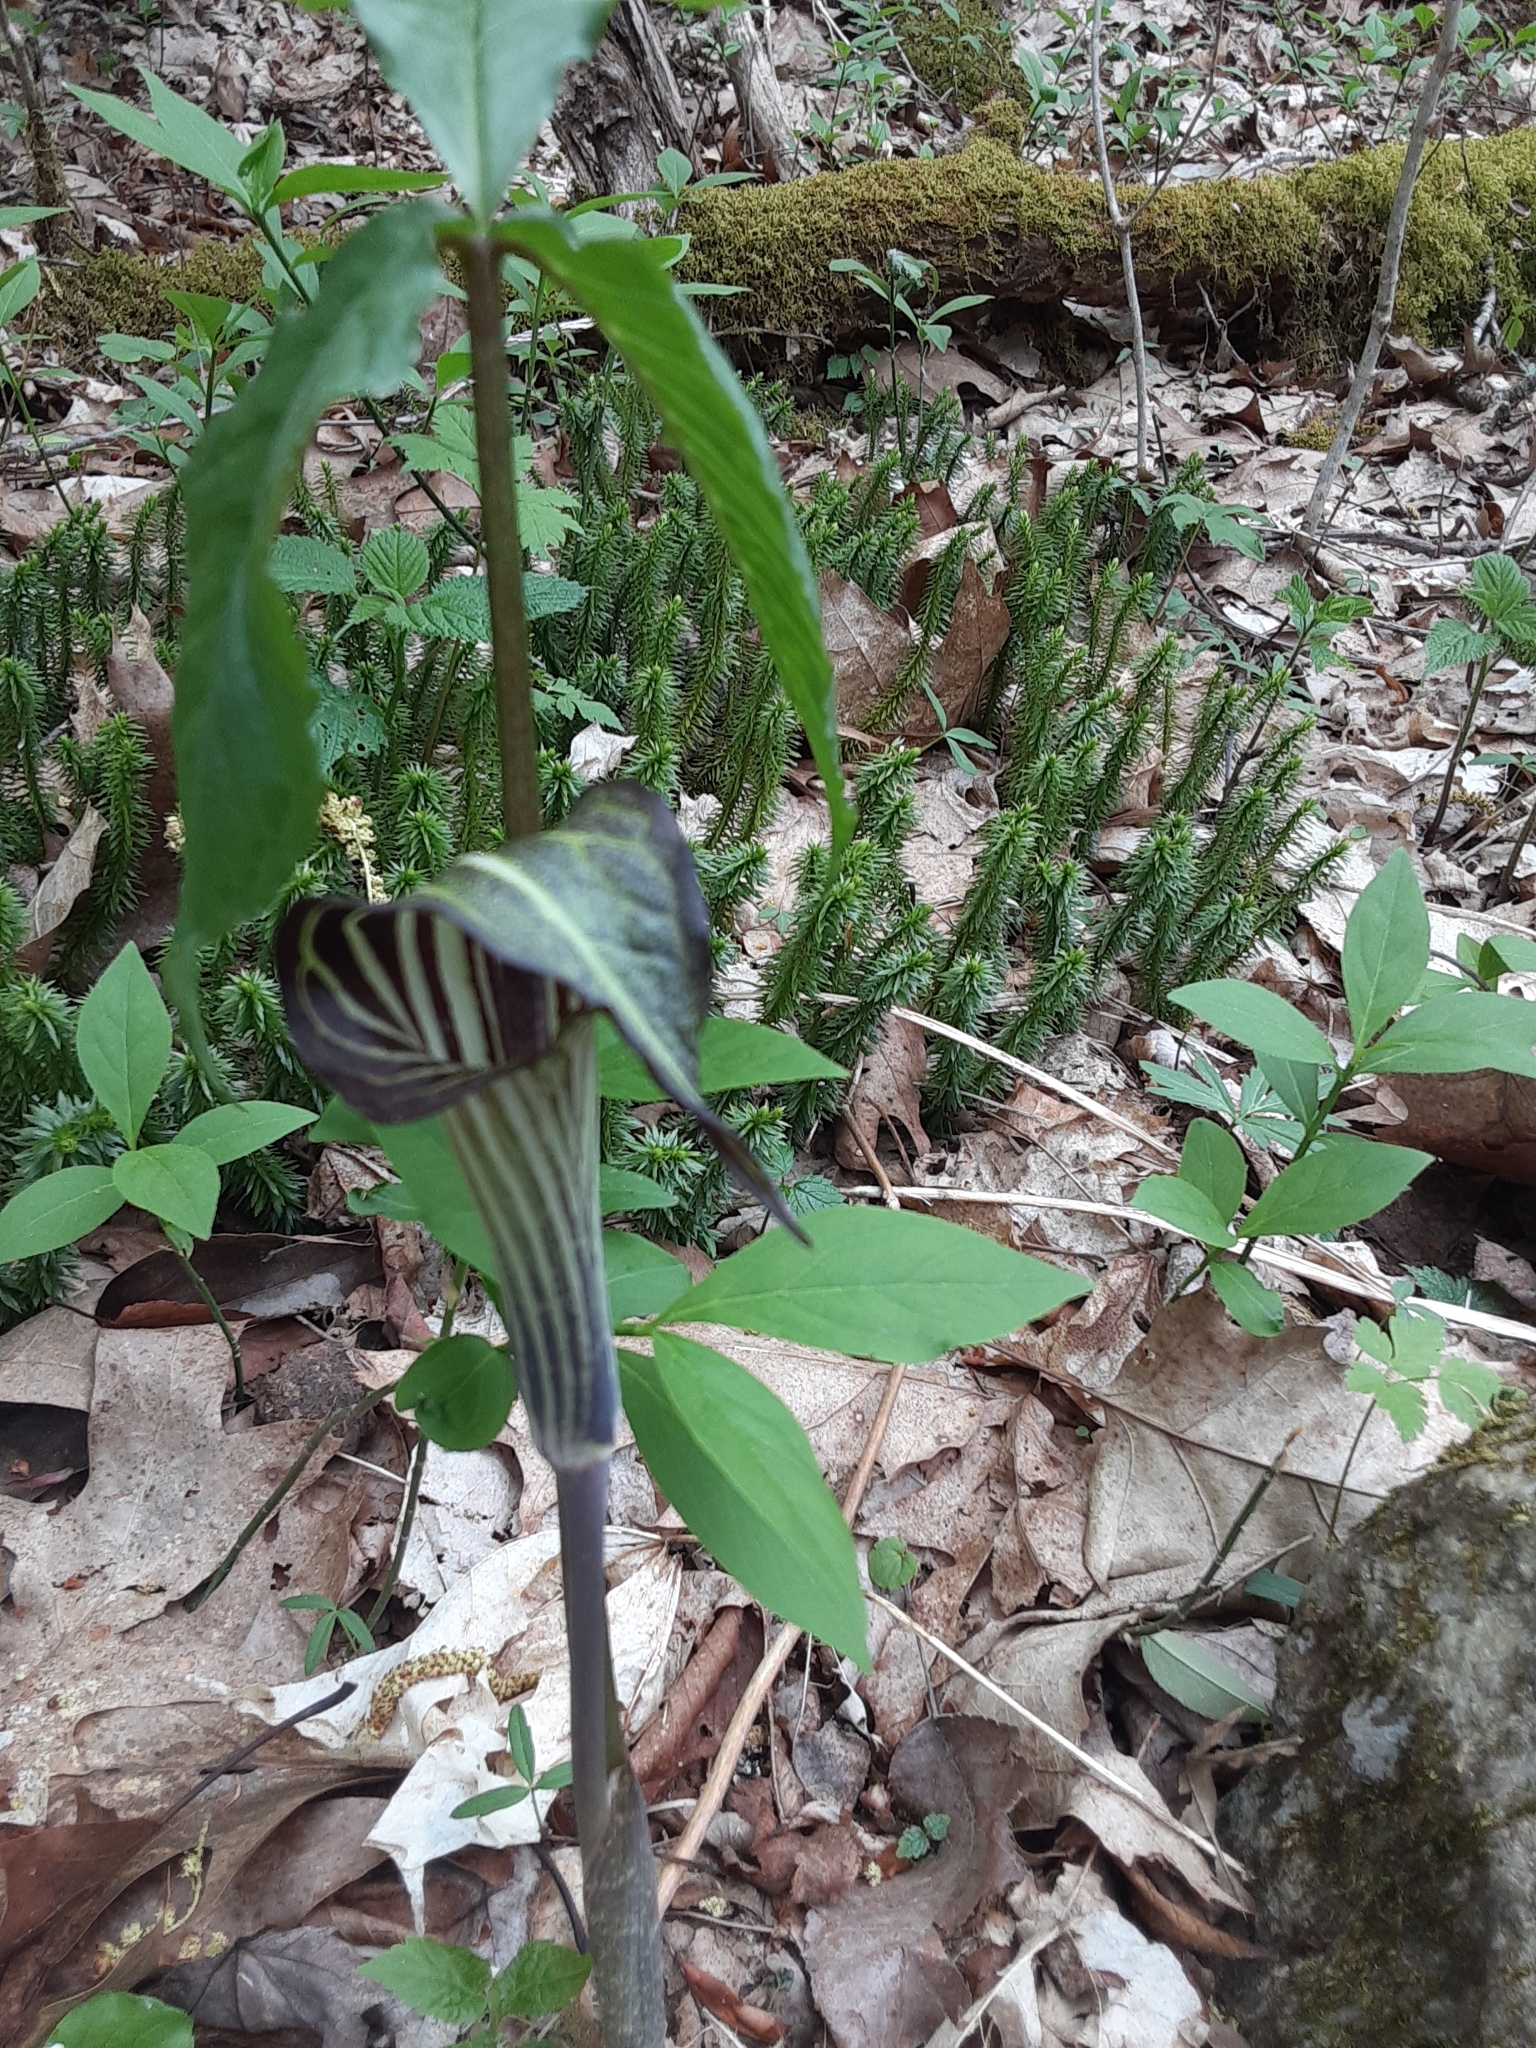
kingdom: Plantae
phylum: Tracheophyta
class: Liliopsida
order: Alismatales
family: Araceae
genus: Arisaema
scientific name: Arisaema triphyllum
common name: Jack-in-the-pulpit
